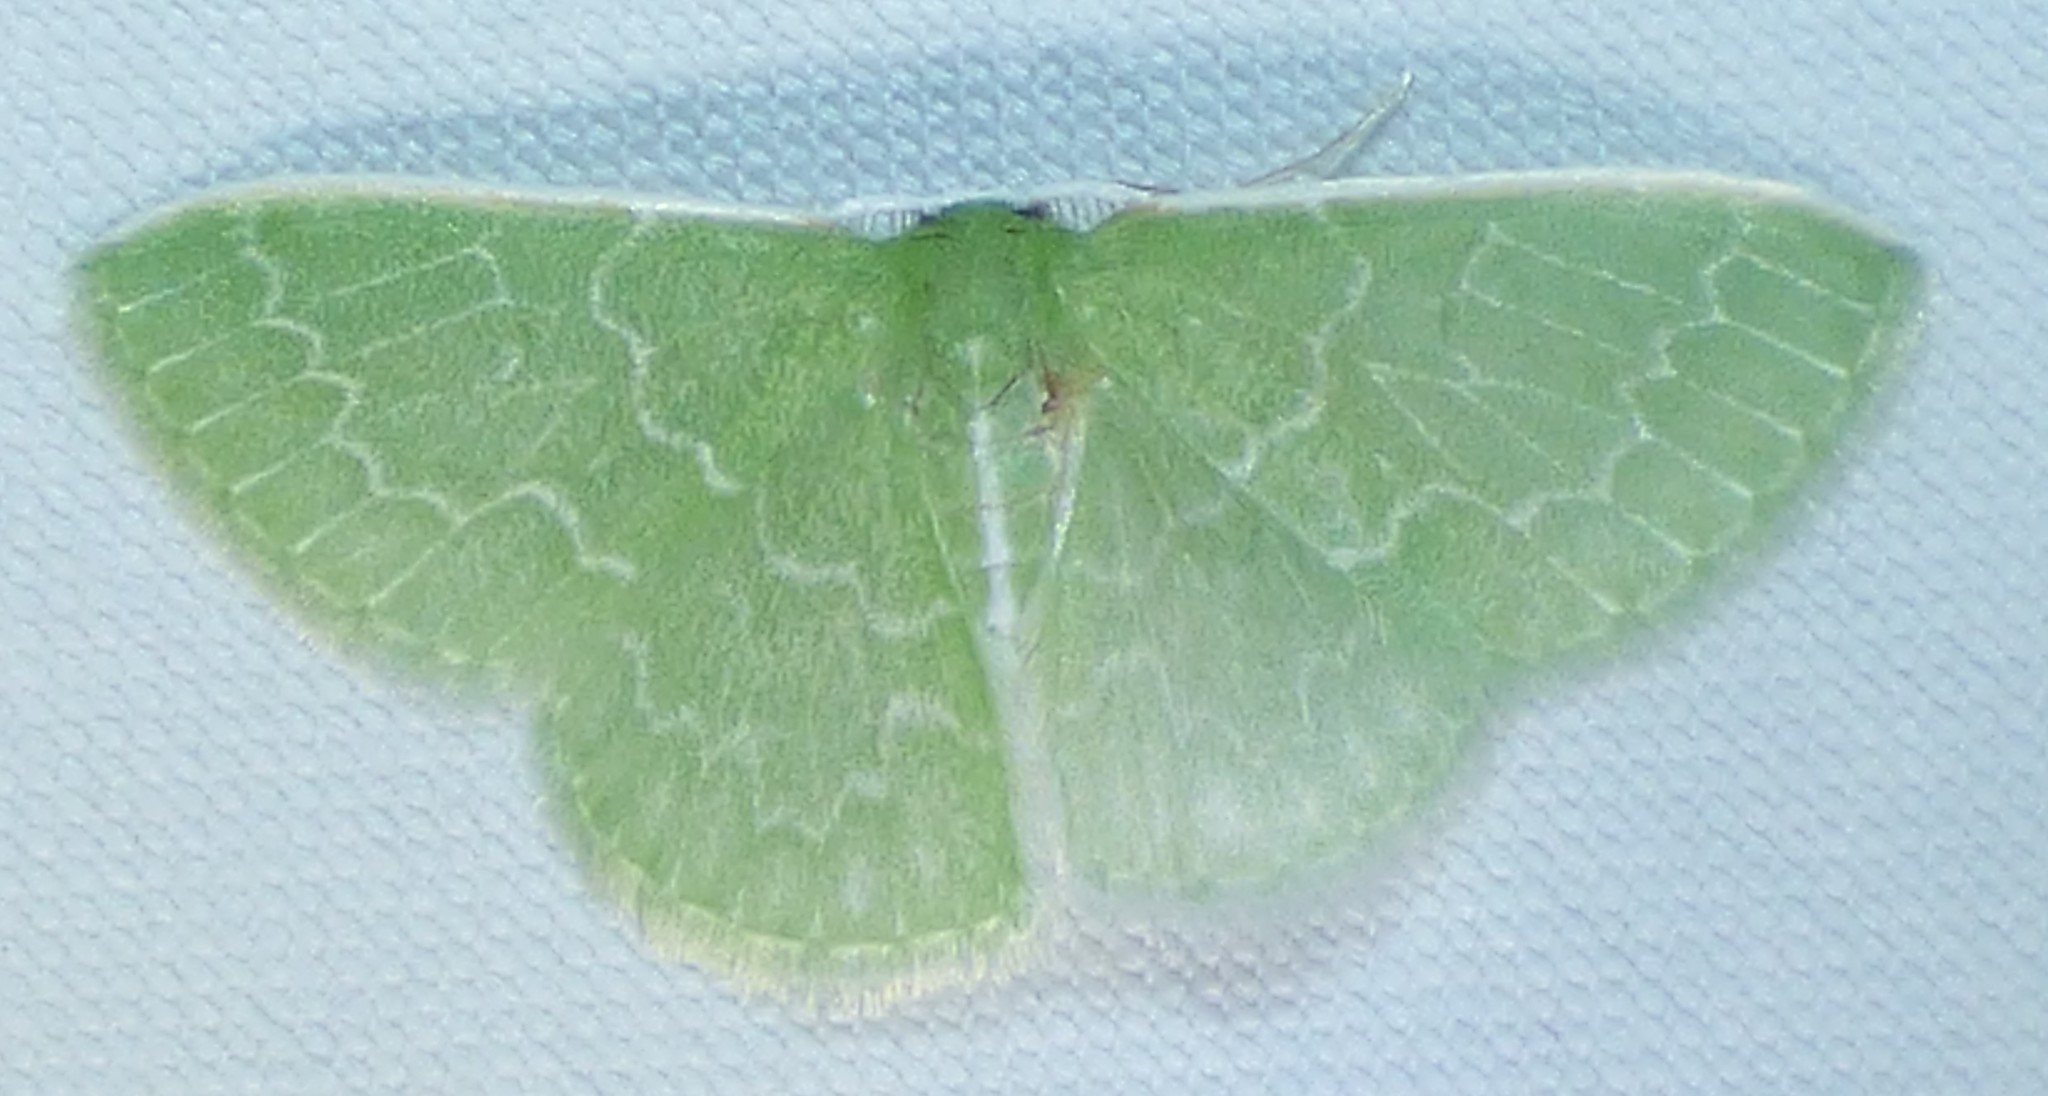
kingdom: Animalia
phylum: Arthropoda
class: Insecta
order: Lepidoptera
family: Geometridae
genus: Synchlora
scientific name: Synchlora frondaria
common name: Southern emerald
